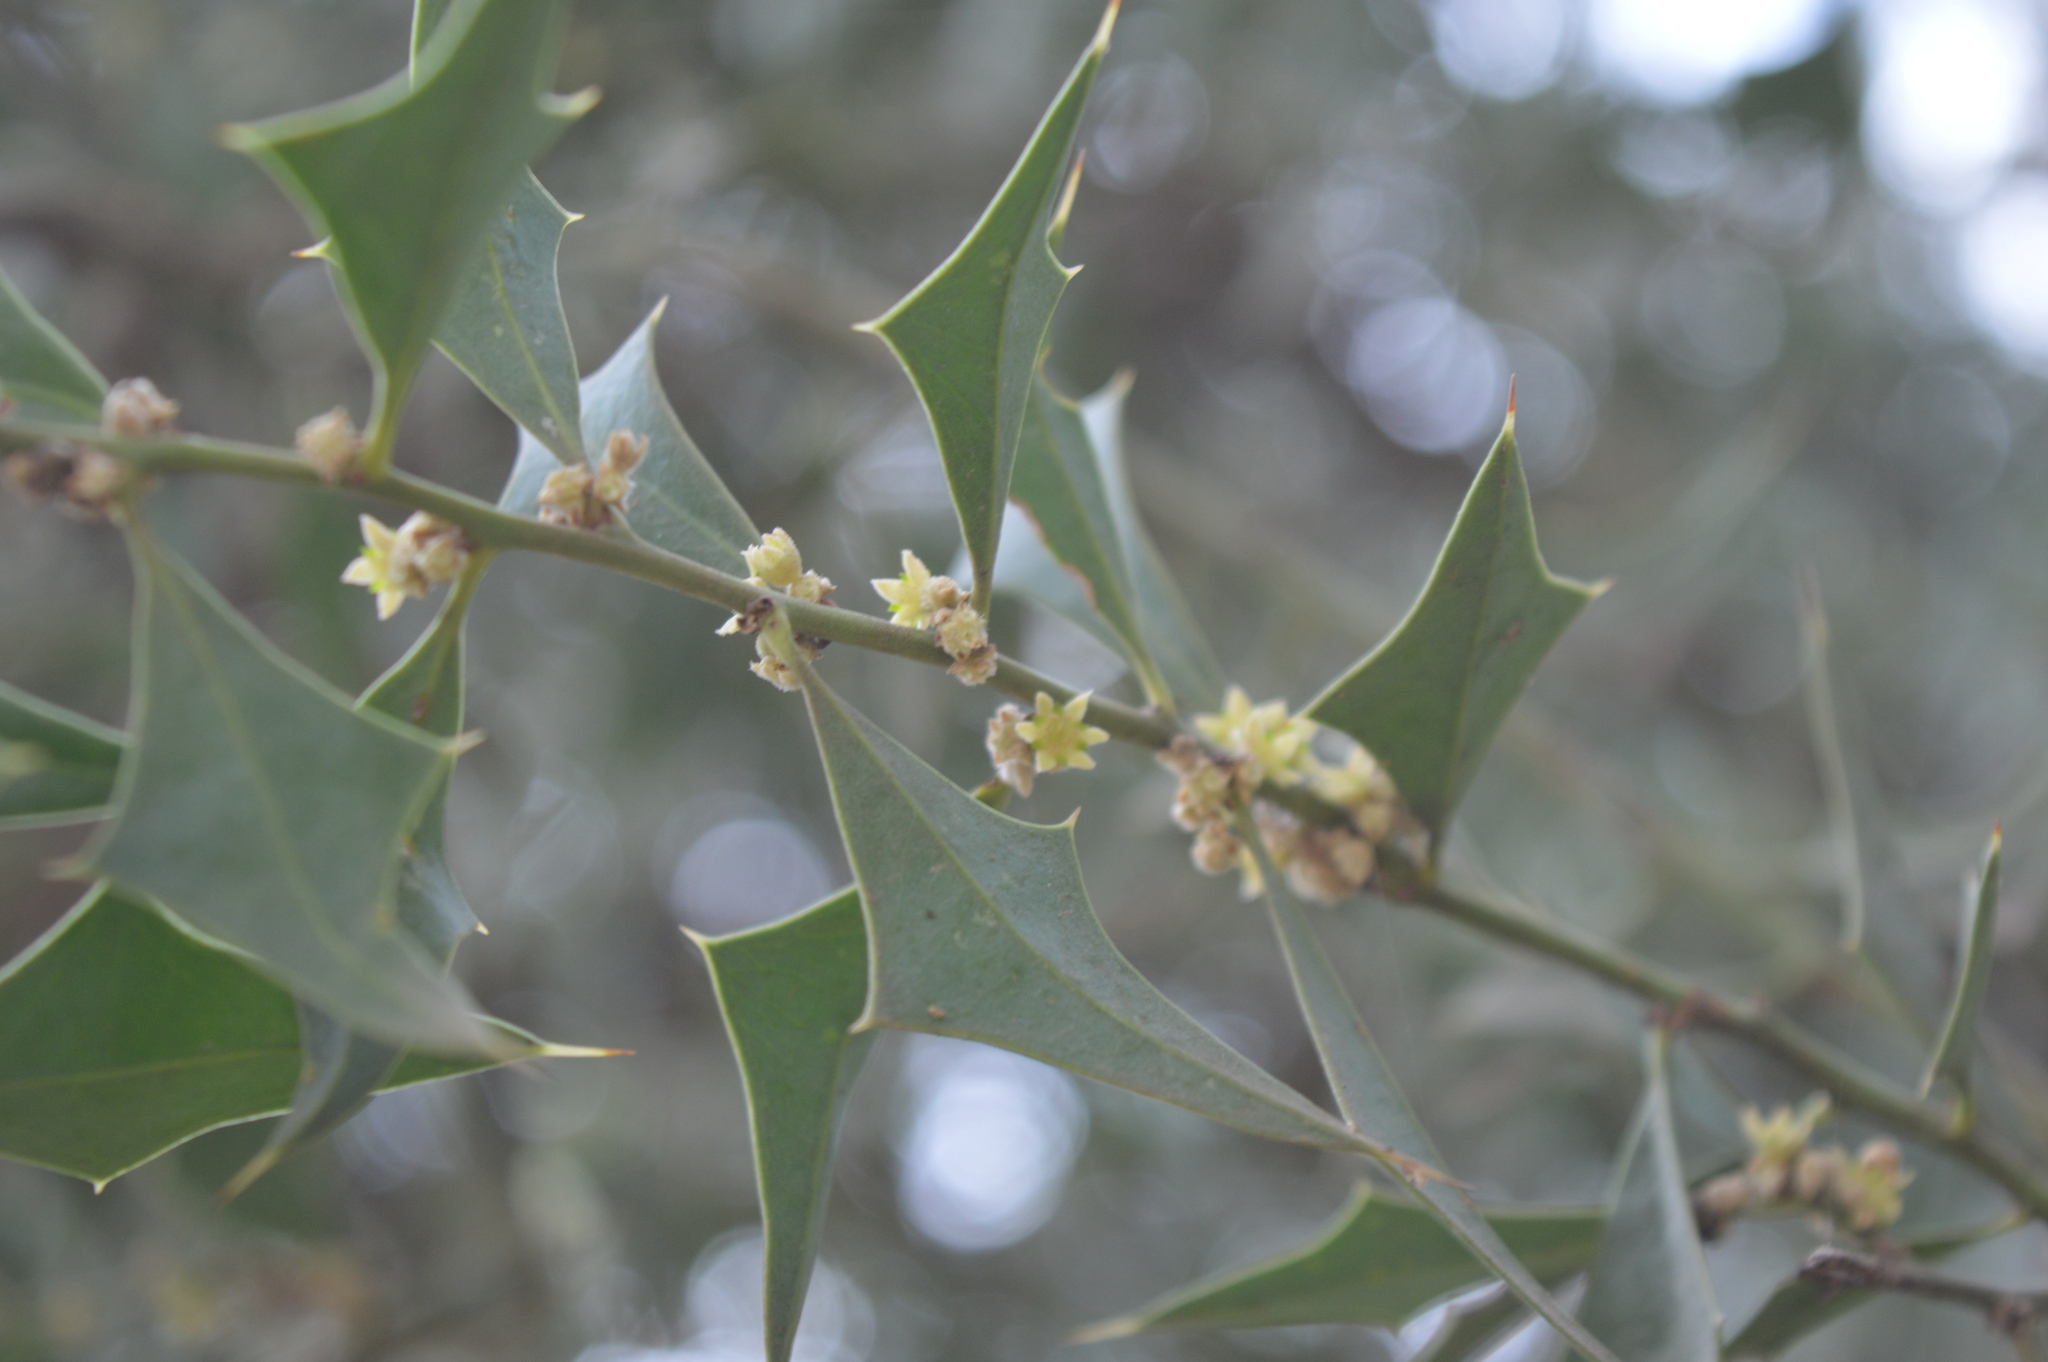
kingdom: Plantae
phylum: Tracheophyta
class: Magnoliopsida
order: Santalales
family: Cervantesiaceae
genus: Jodina
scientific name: Jodina rhombifolia
